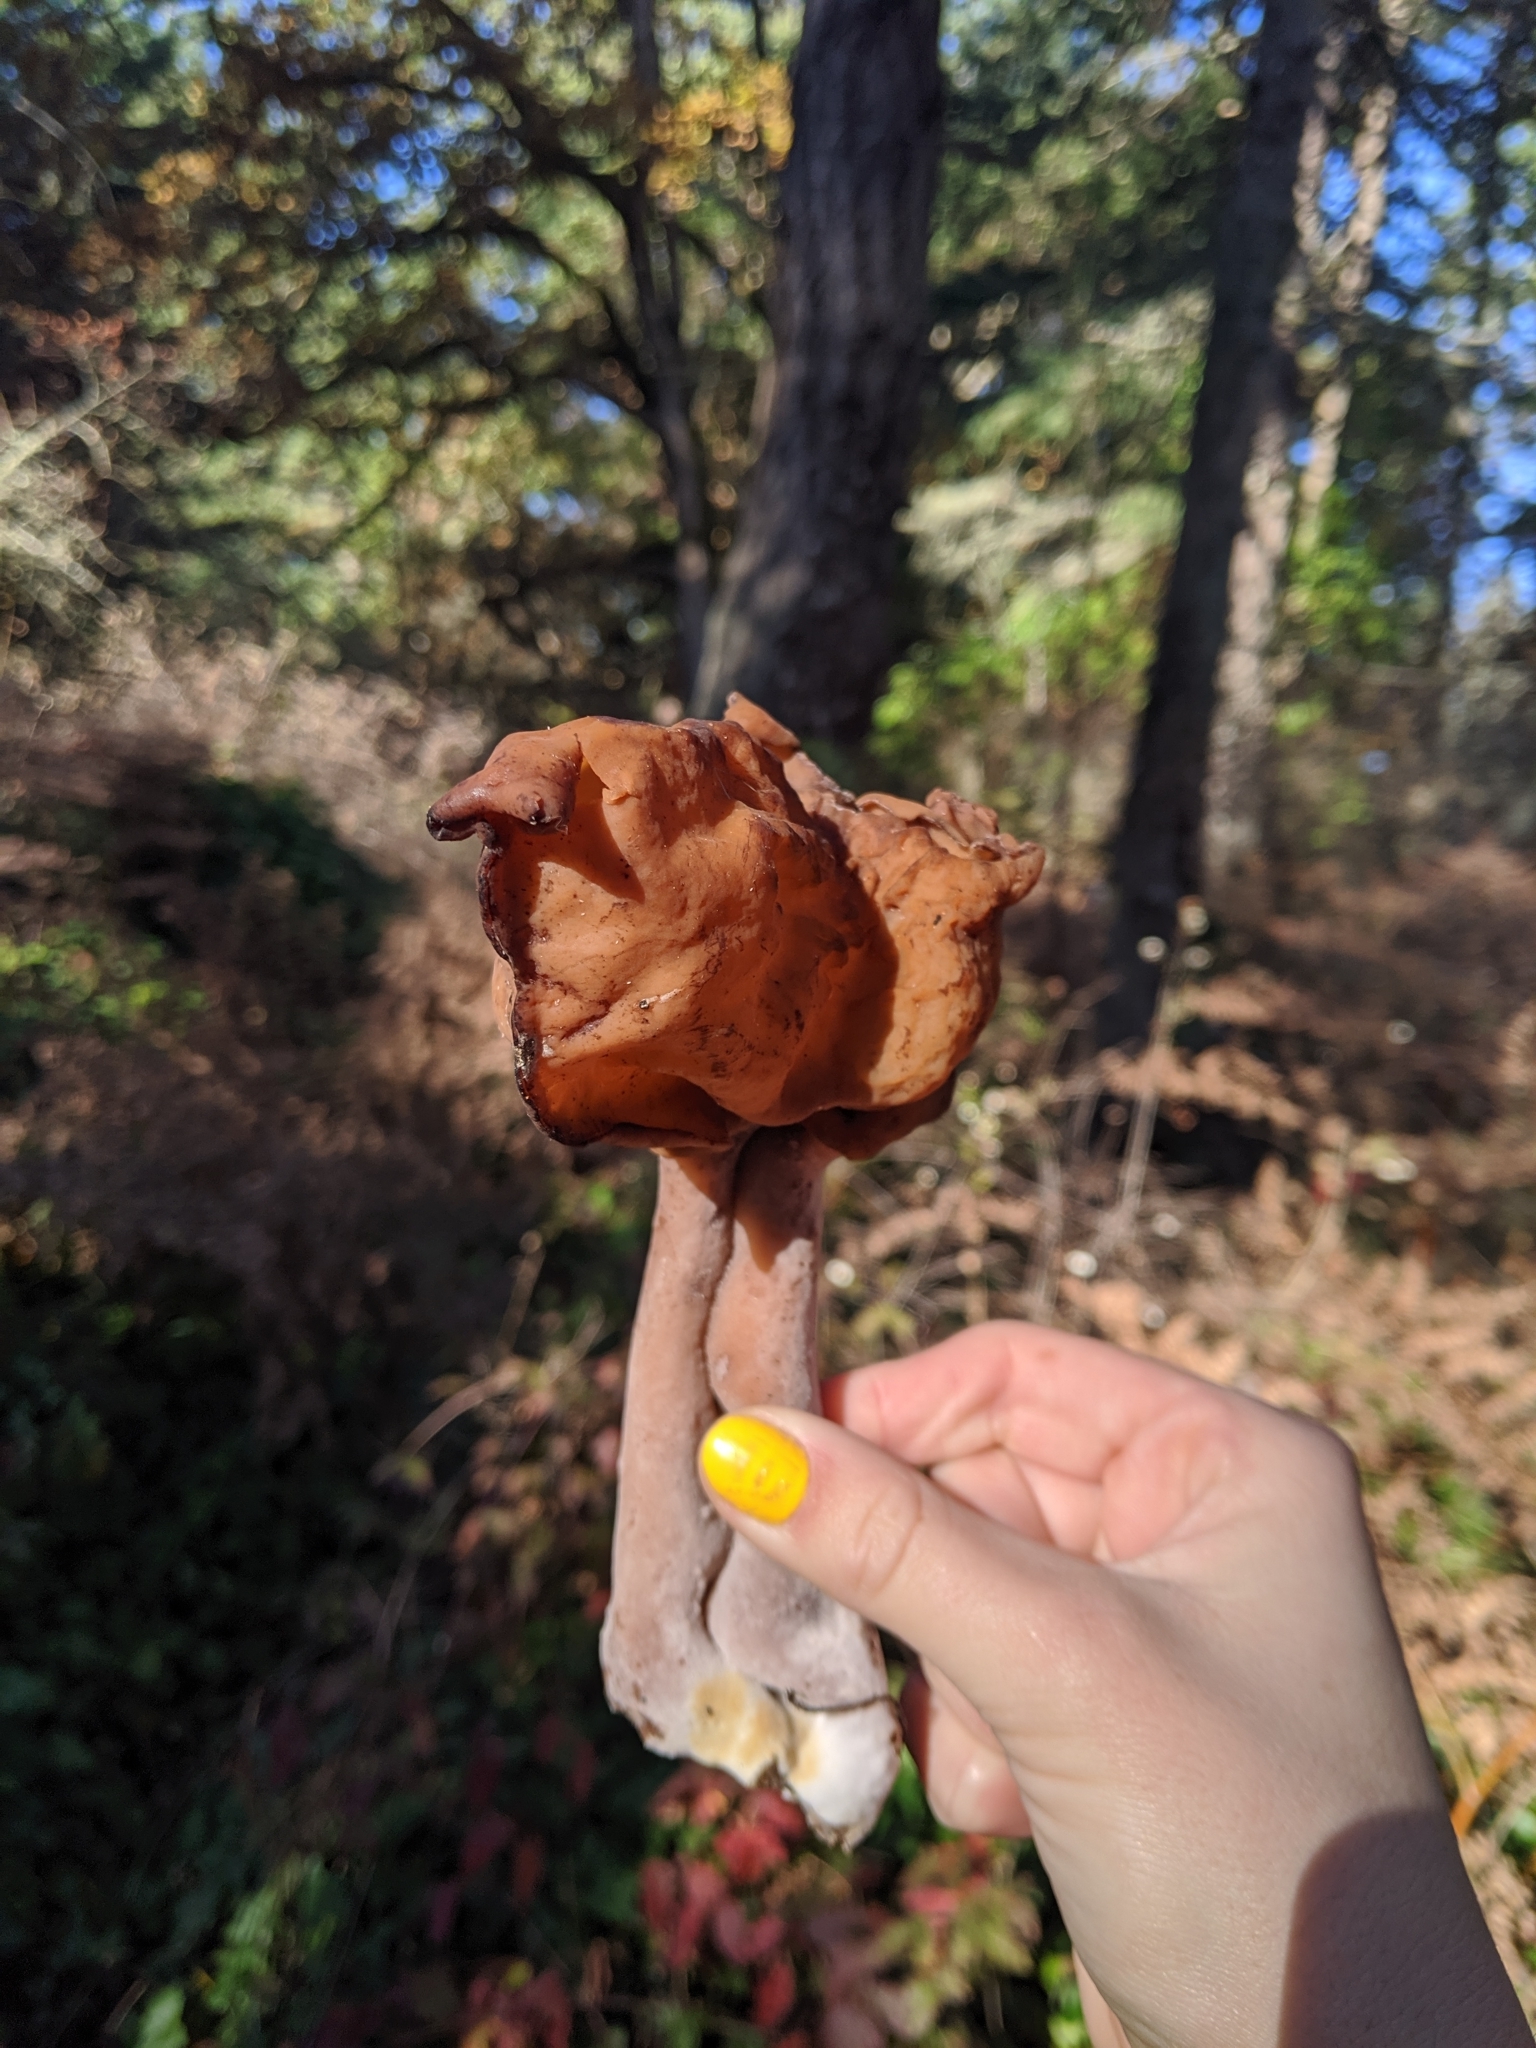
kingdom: Fungi
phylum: Ascomycota
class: Pezizomycetes
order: Pezizales
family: Discinaceae
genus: Gyromitra
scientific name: Gyromitra infula
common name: Pouched false morel
